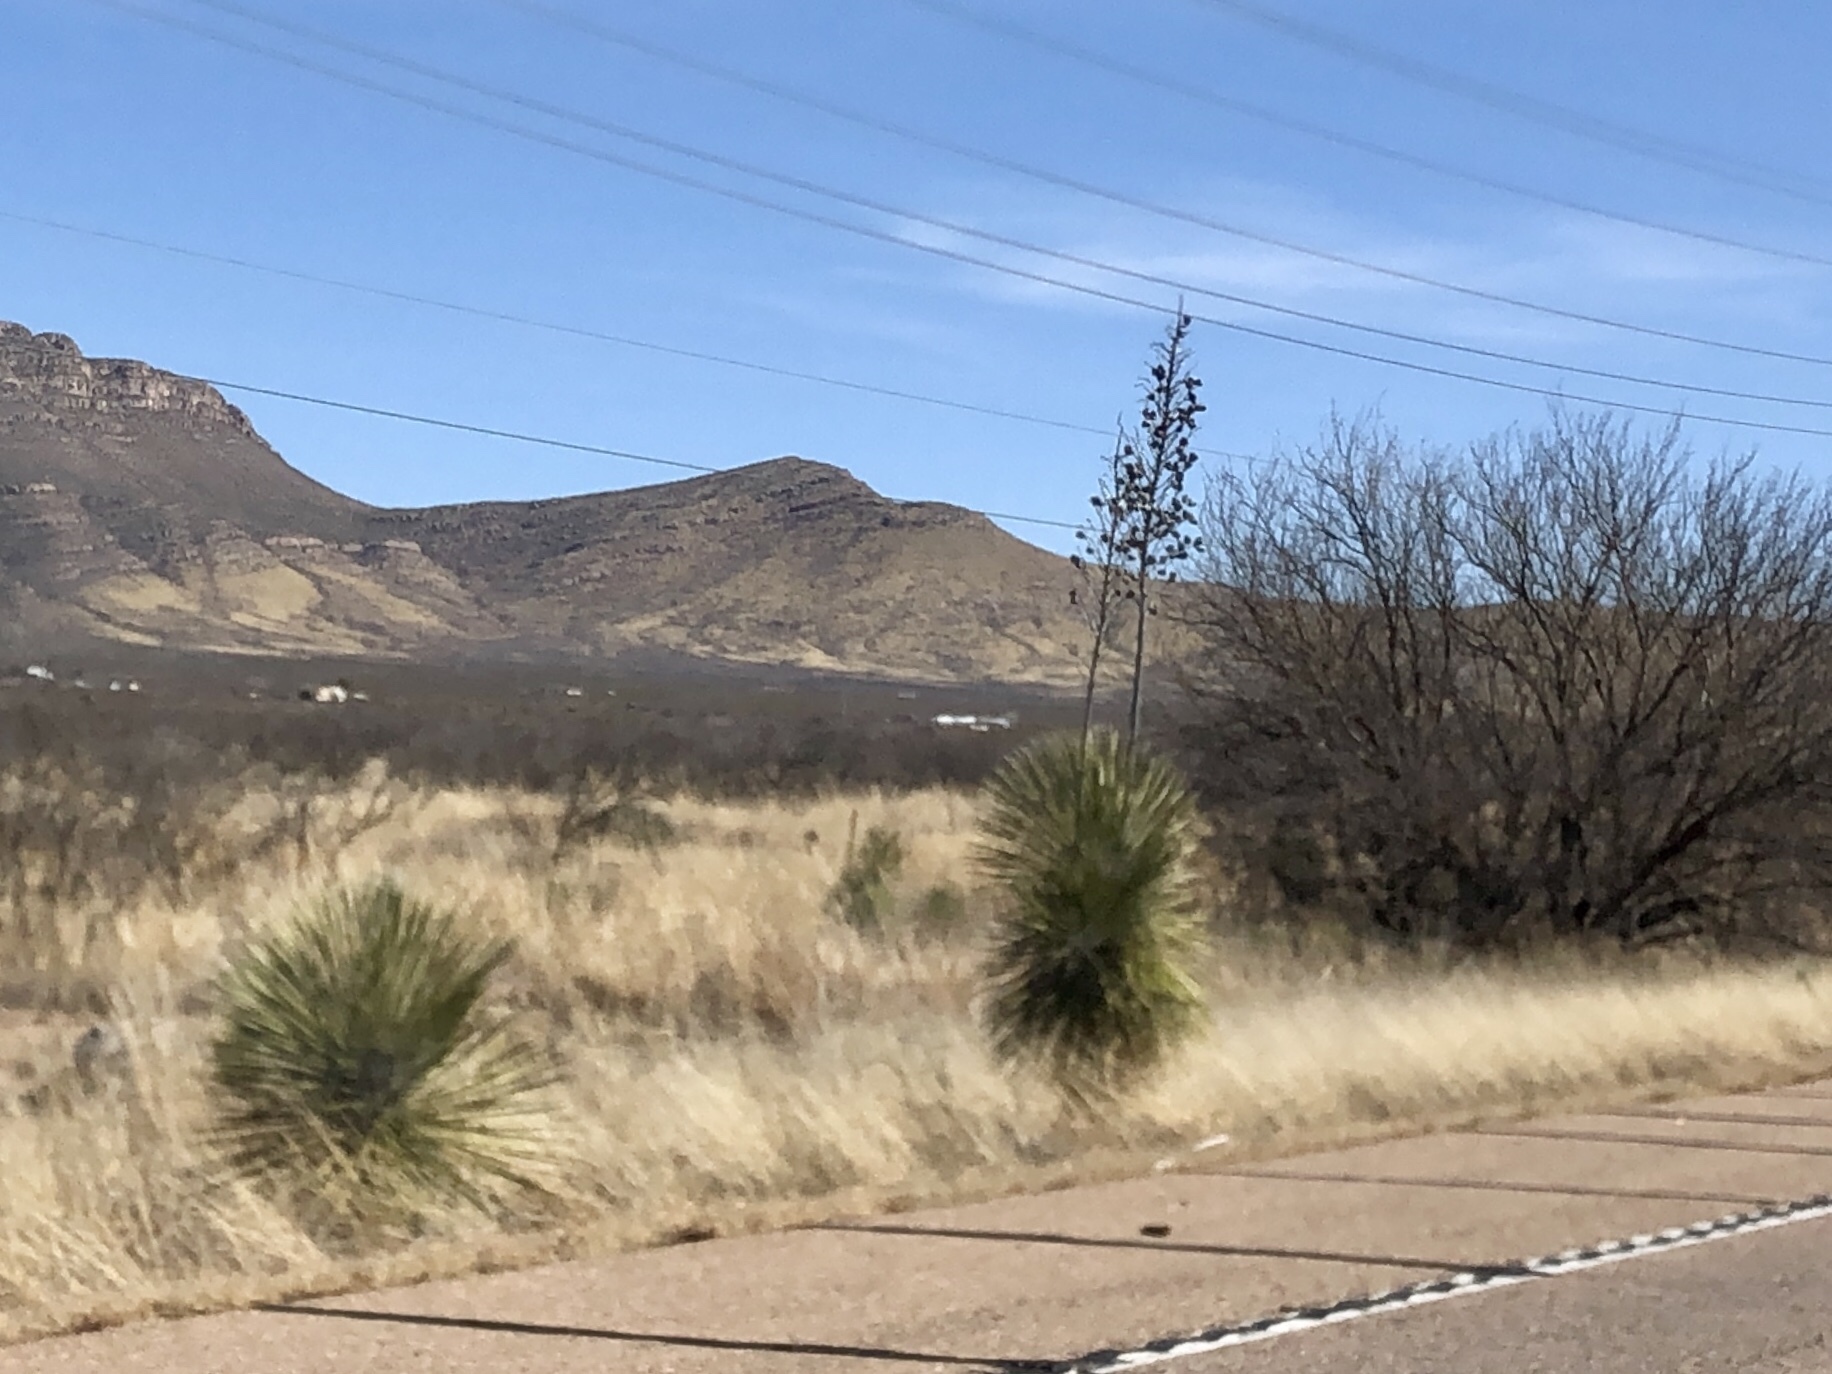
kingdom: Plantae
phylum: Tracheophyta
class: Liliopsida
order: Asparagales
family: Asparagaceae
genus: Yucca
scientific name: Yucca elata
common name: Palmella
